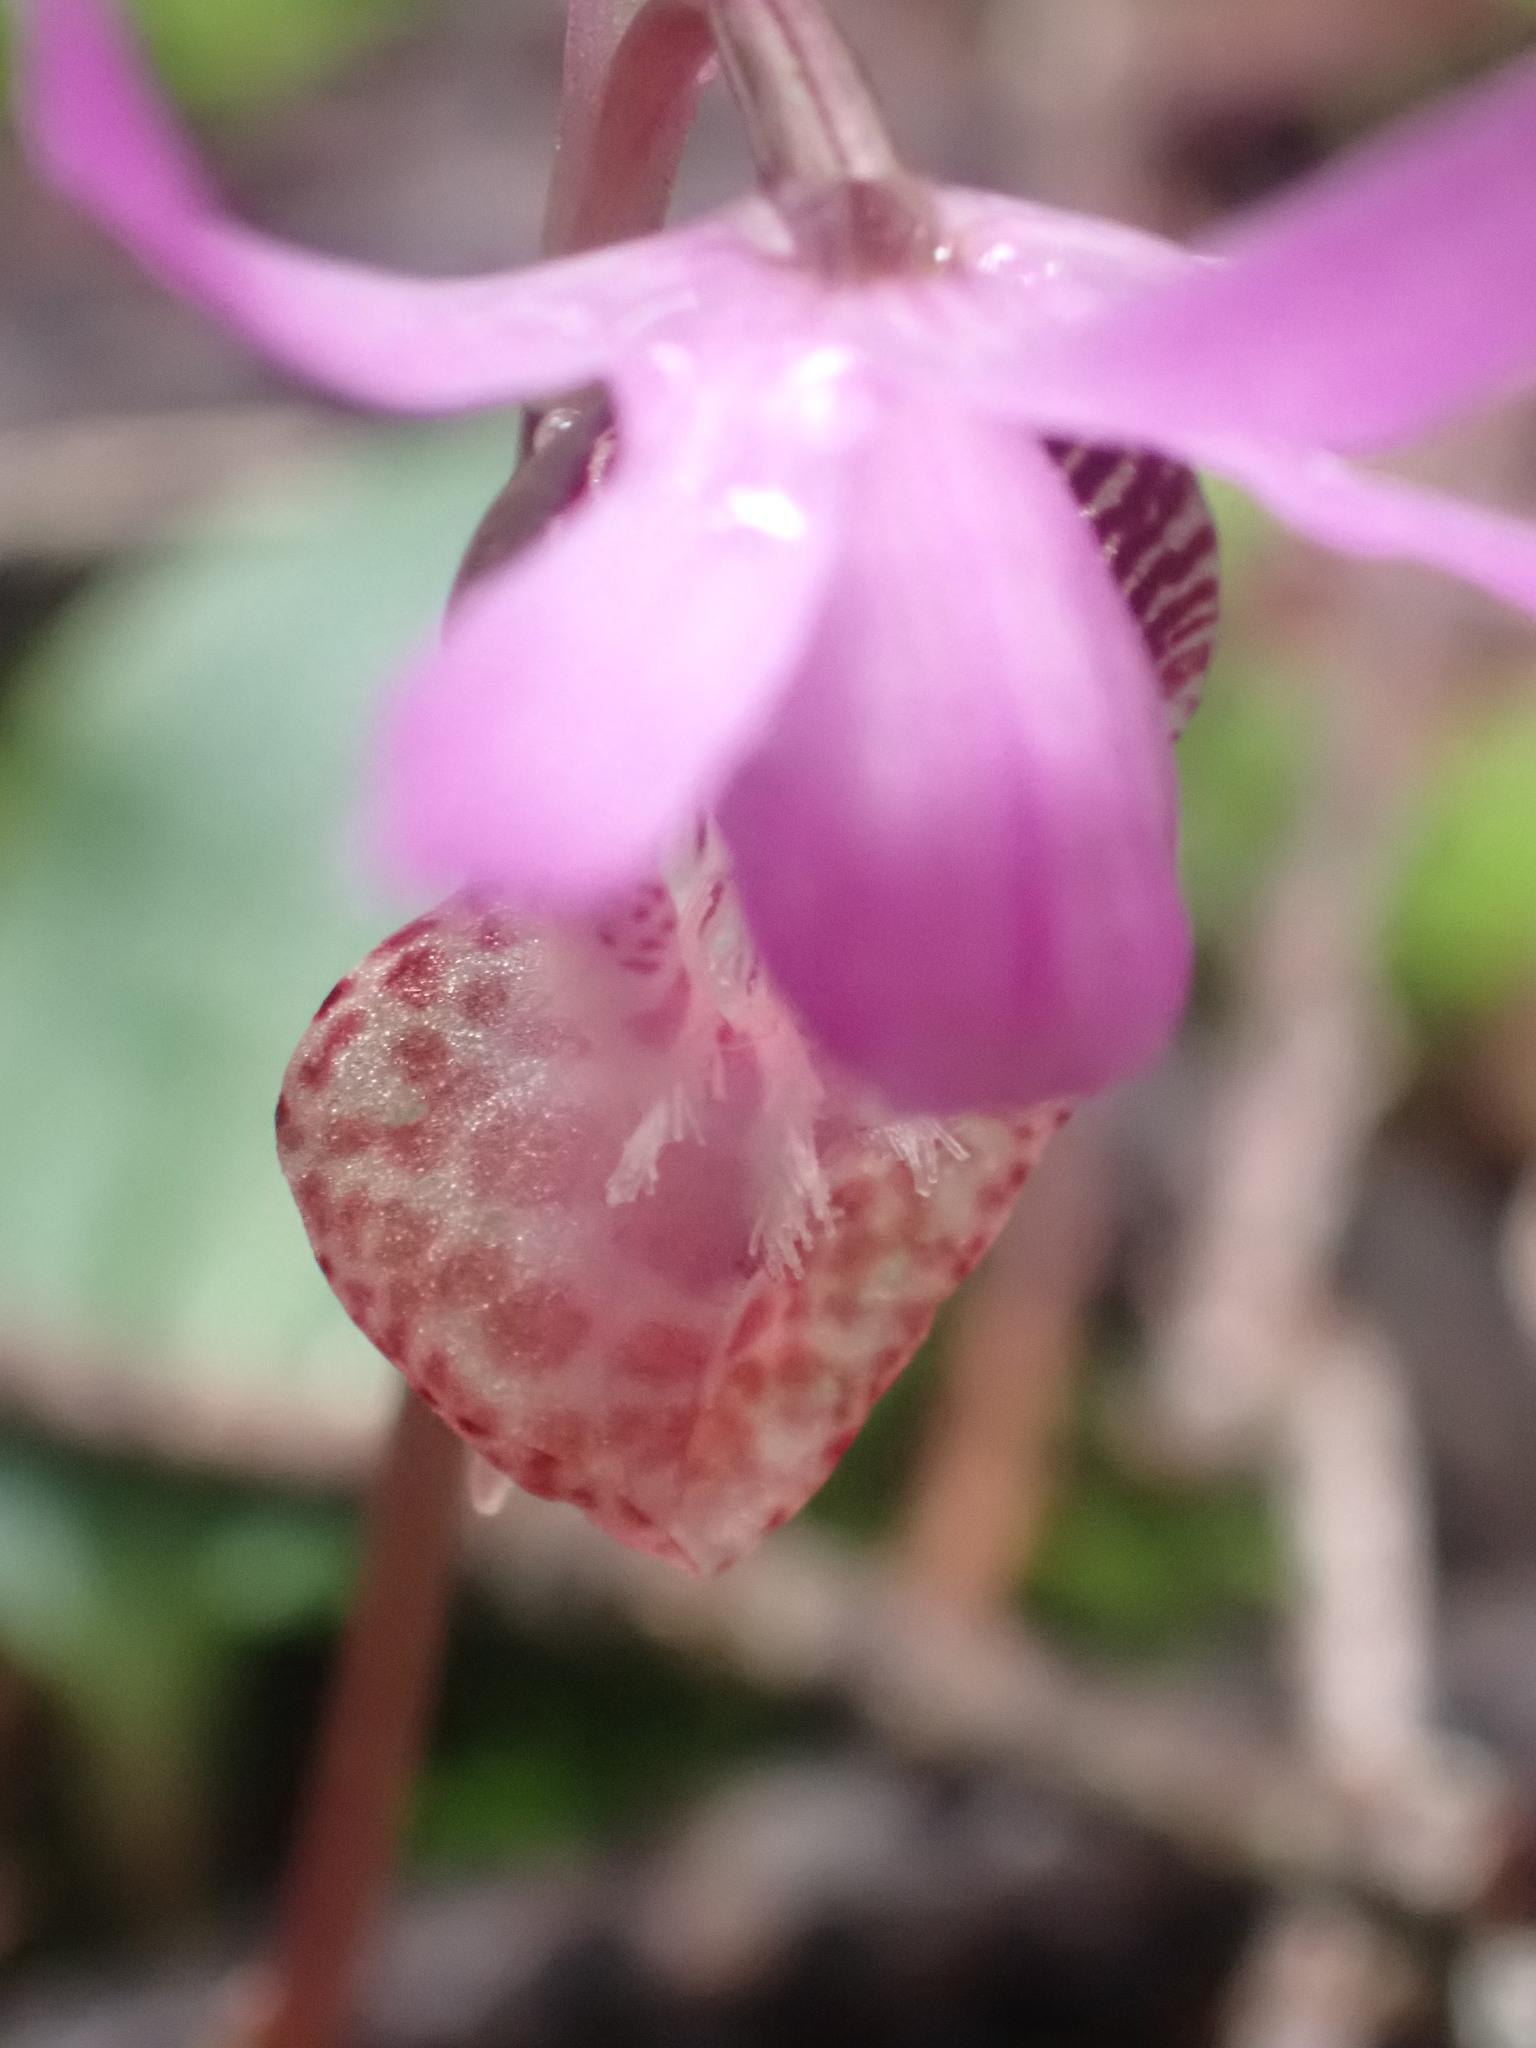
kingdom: Plantae
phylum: Tracheophyta
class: Liliopsida
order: Asparagales
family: Orchidaceae
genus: Calypso
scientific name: Calypso bulbosa
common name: Calypso
